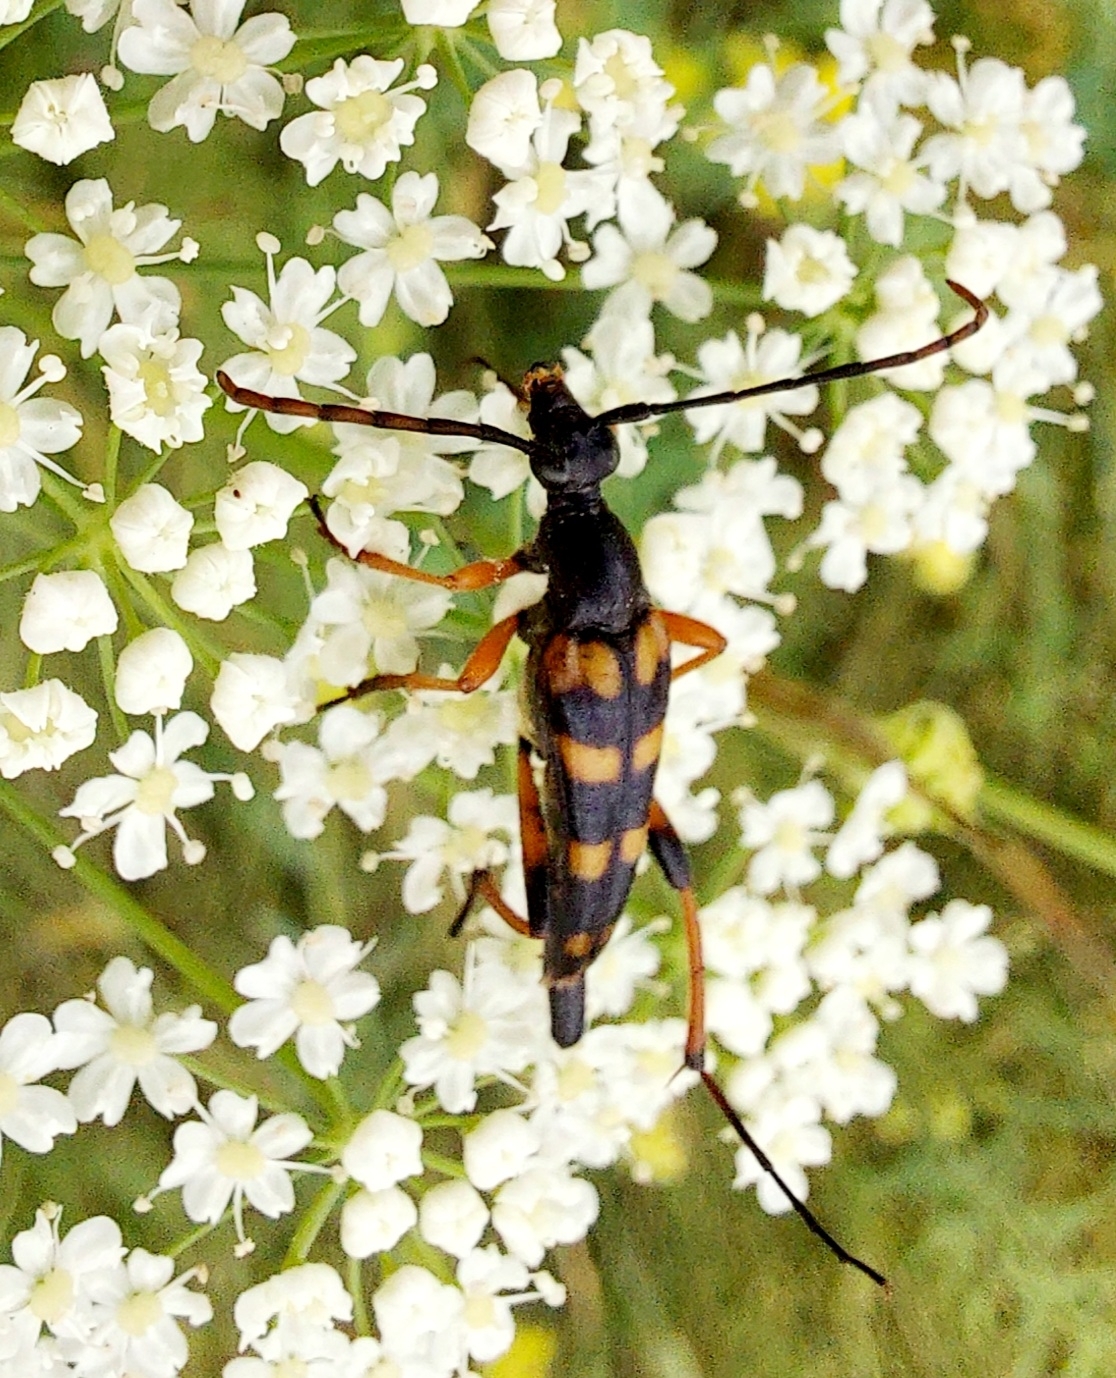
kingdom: Animalia
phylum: Arthropoda
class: Insecta
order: Coleoptera
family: Cerambycidae
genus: Strangalia
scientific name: Strangalia attenuata
